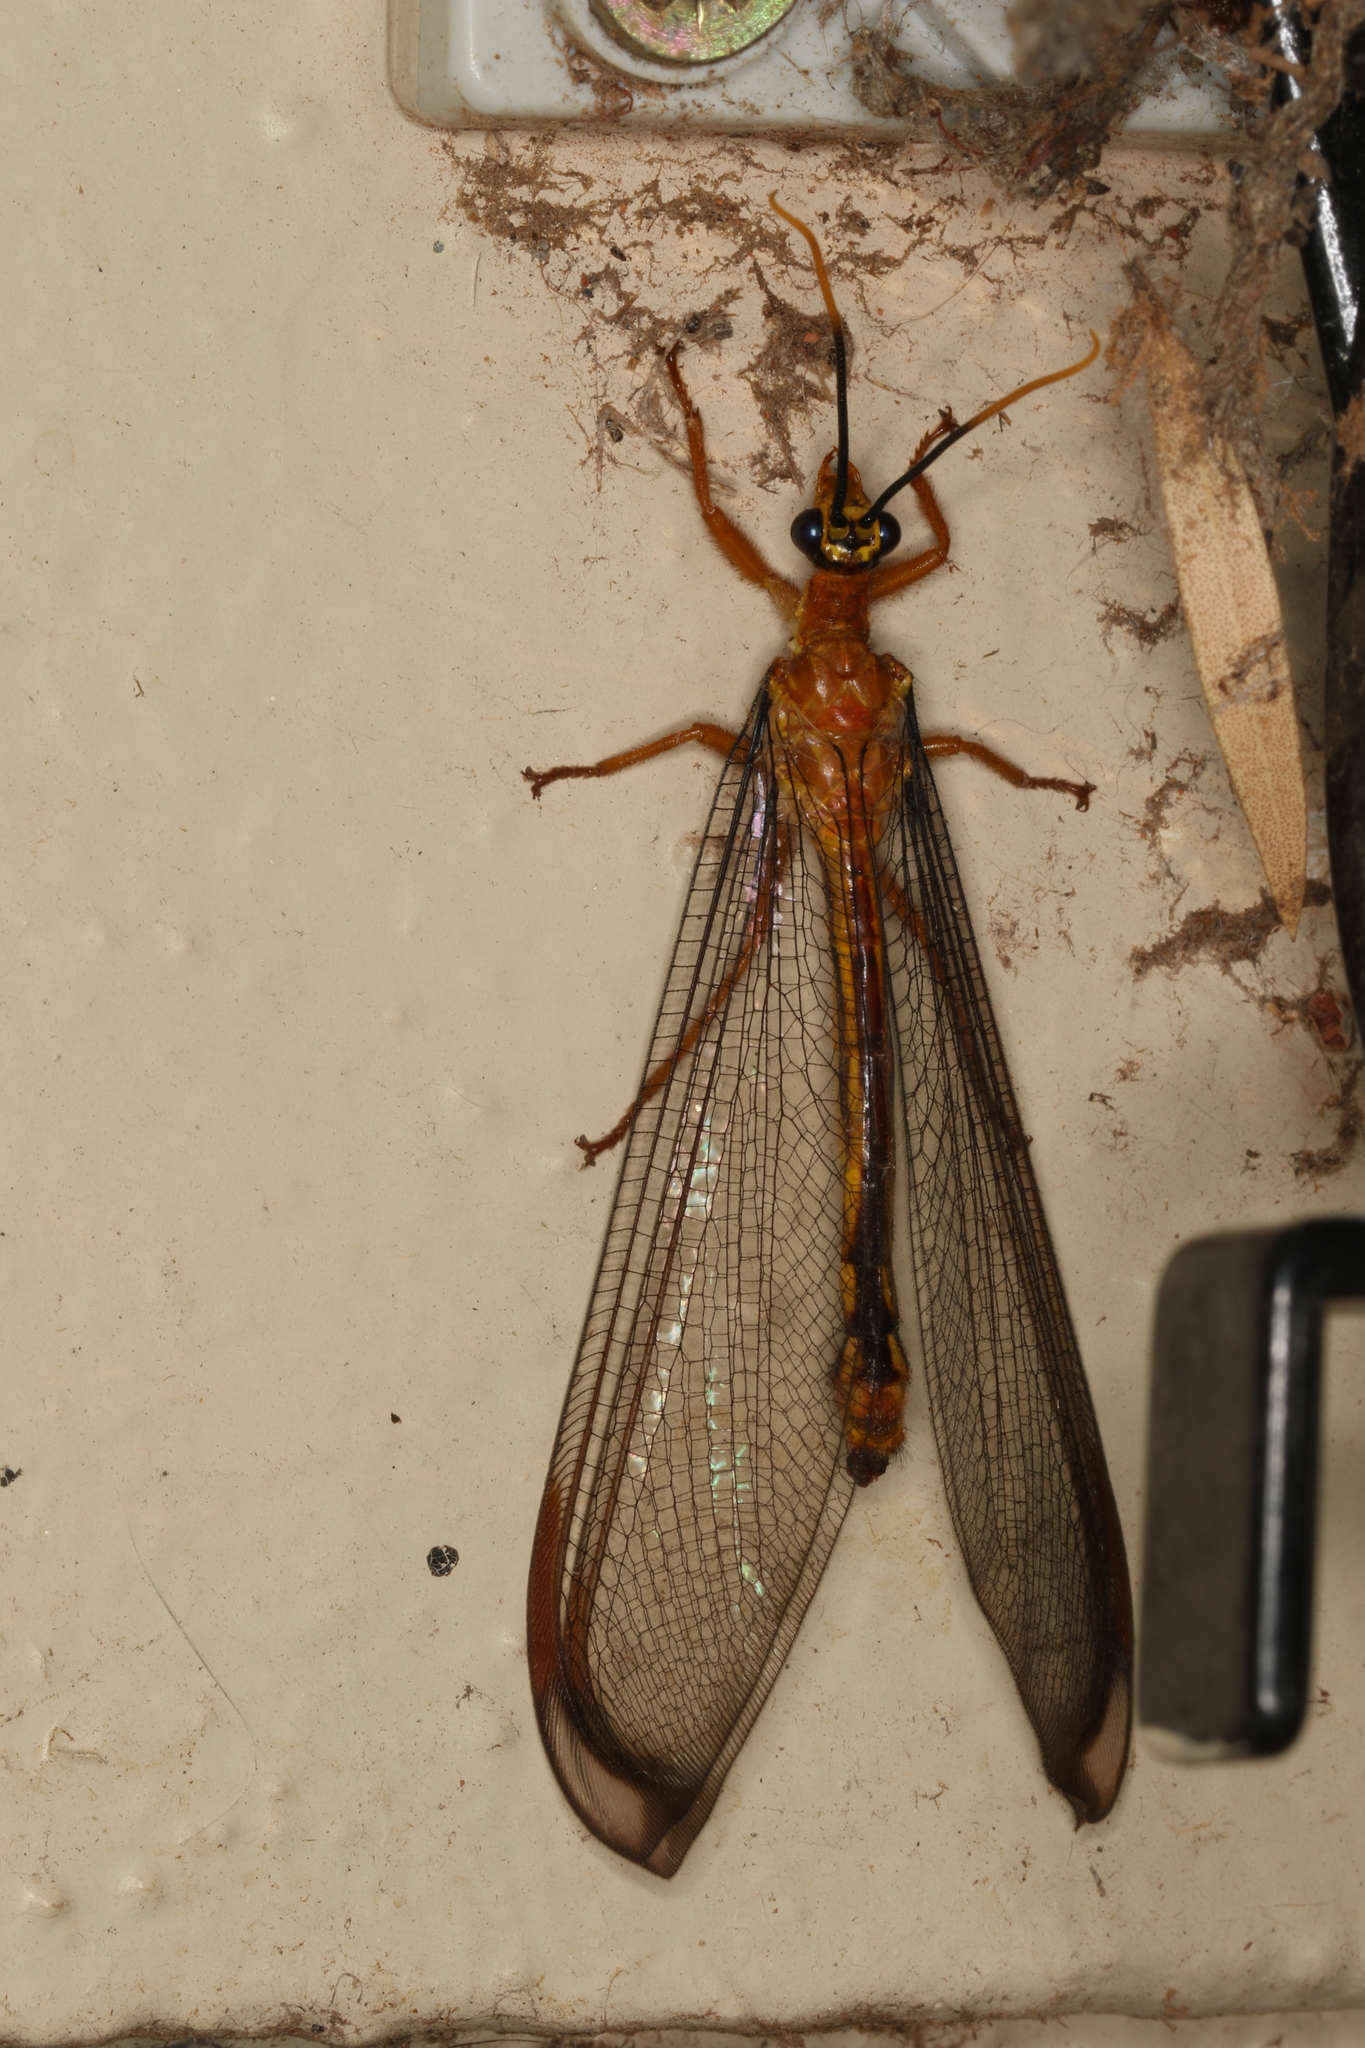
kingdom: Animalia
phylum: Arthropoda
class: Insecta
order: Neuroptera
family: Nymphidae
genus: Nymphes
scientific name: Nymphes myrmeleonoides
